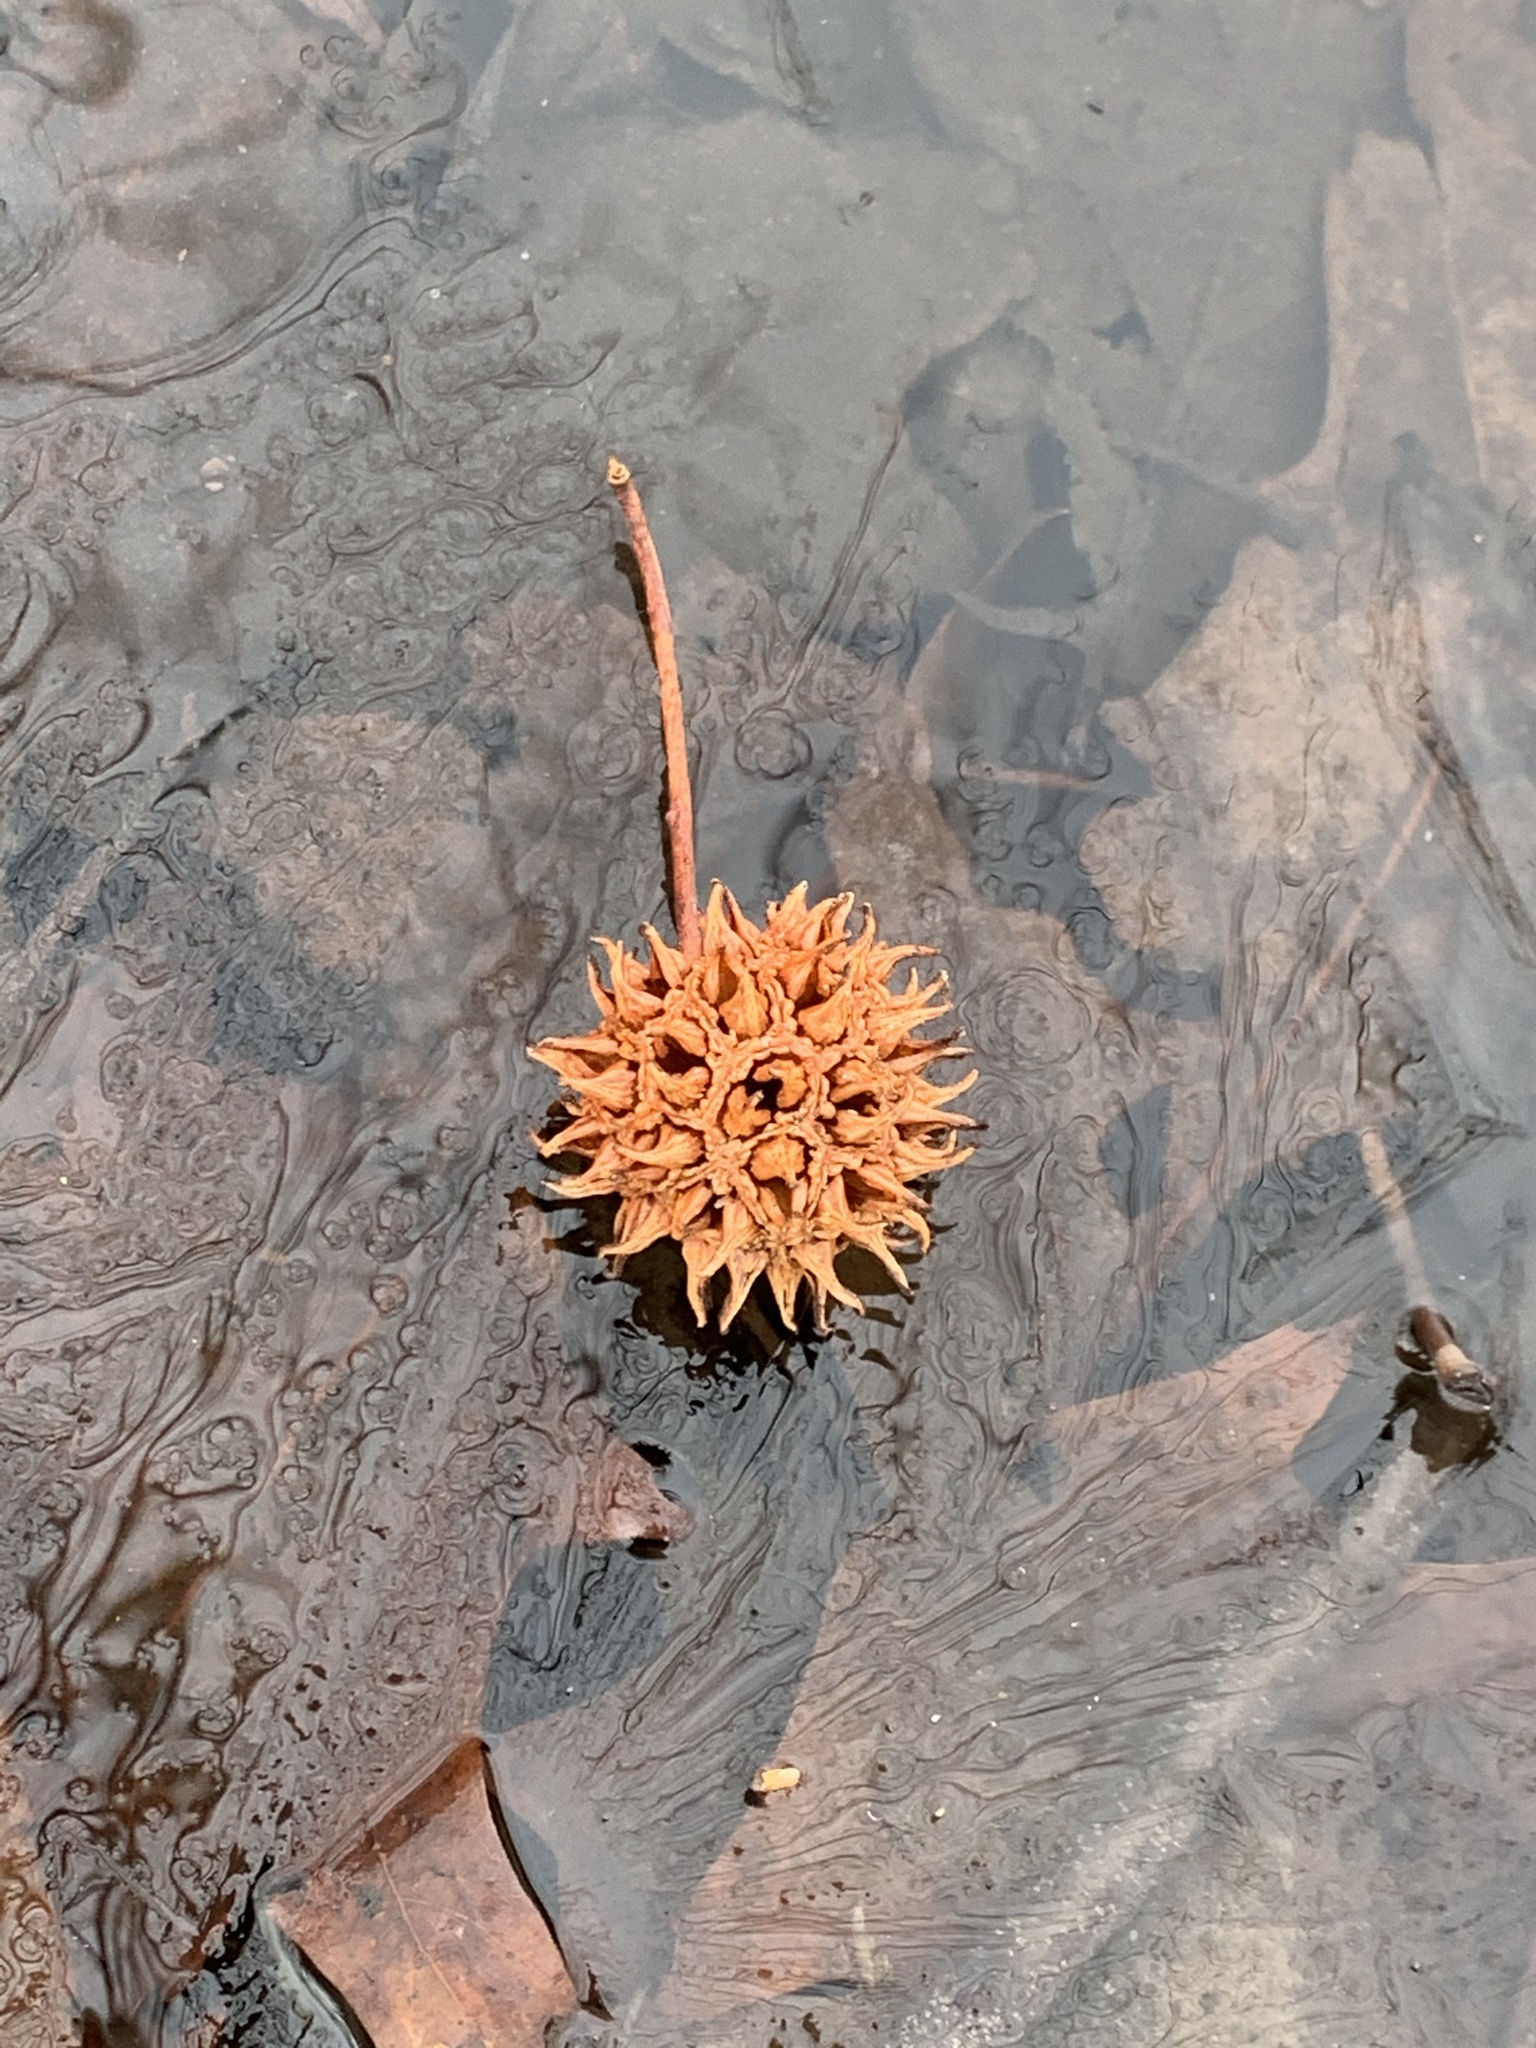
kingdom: Plantae
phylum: Tracheophyta
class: Magnoliopsida
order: Saxifragales
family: Altingiaceae
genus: Liquidambar
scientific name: Liquidambar styraciflua
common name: Sweet gum
